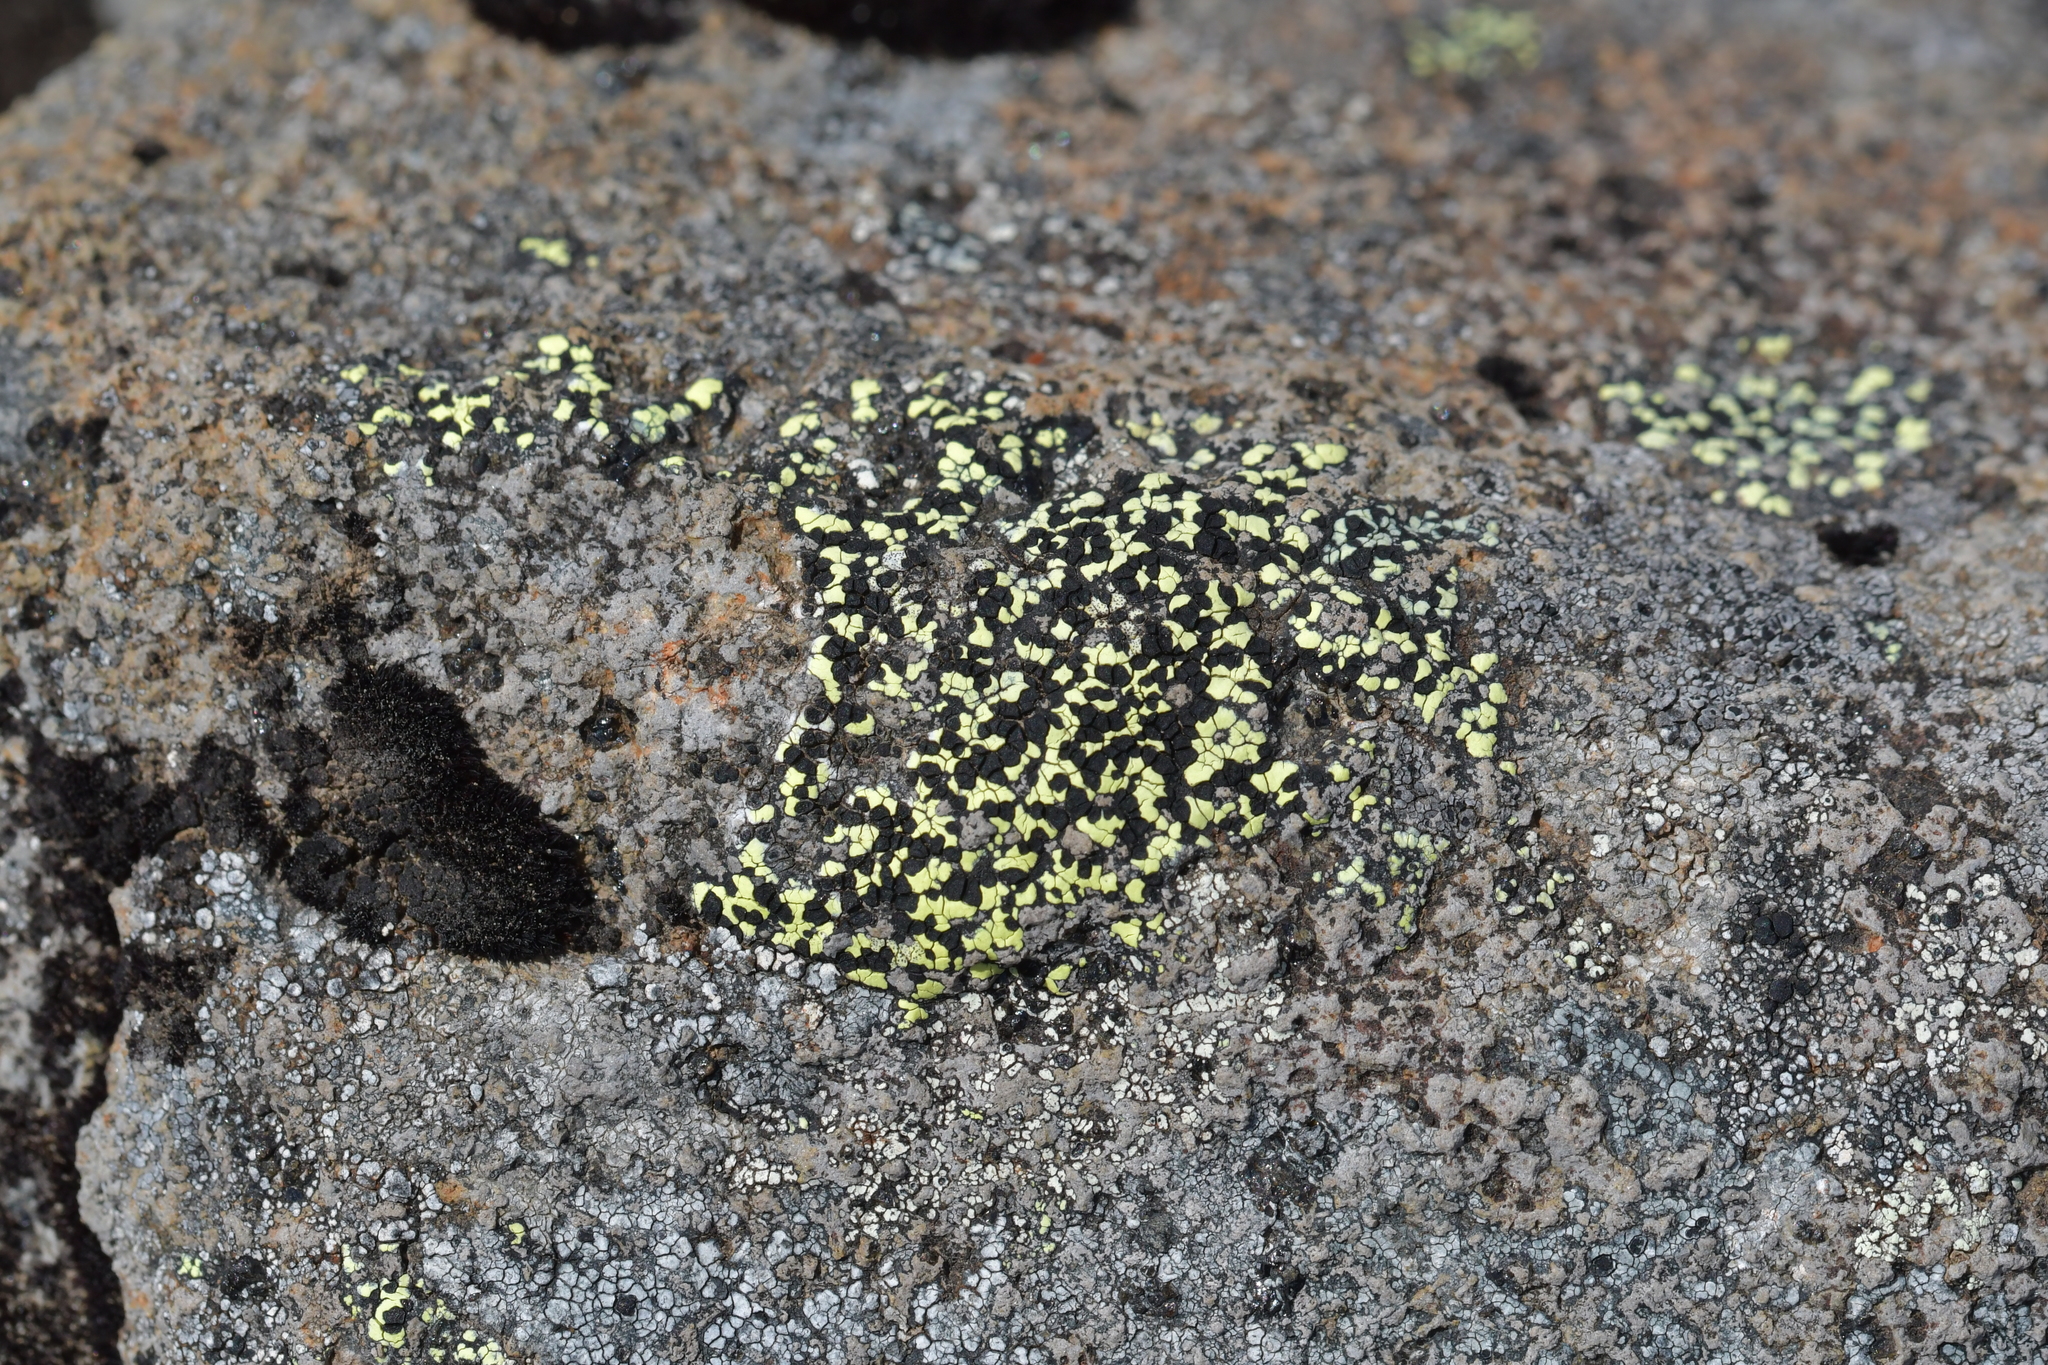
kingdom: Fungi
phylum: Ascomycota
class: Lecanoromycetes
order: Rhizocarpales
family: Rhizocarpaceae
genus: Rhizocarpon
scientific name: Rhizocarpon geographicum
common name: Yellow map lichen
